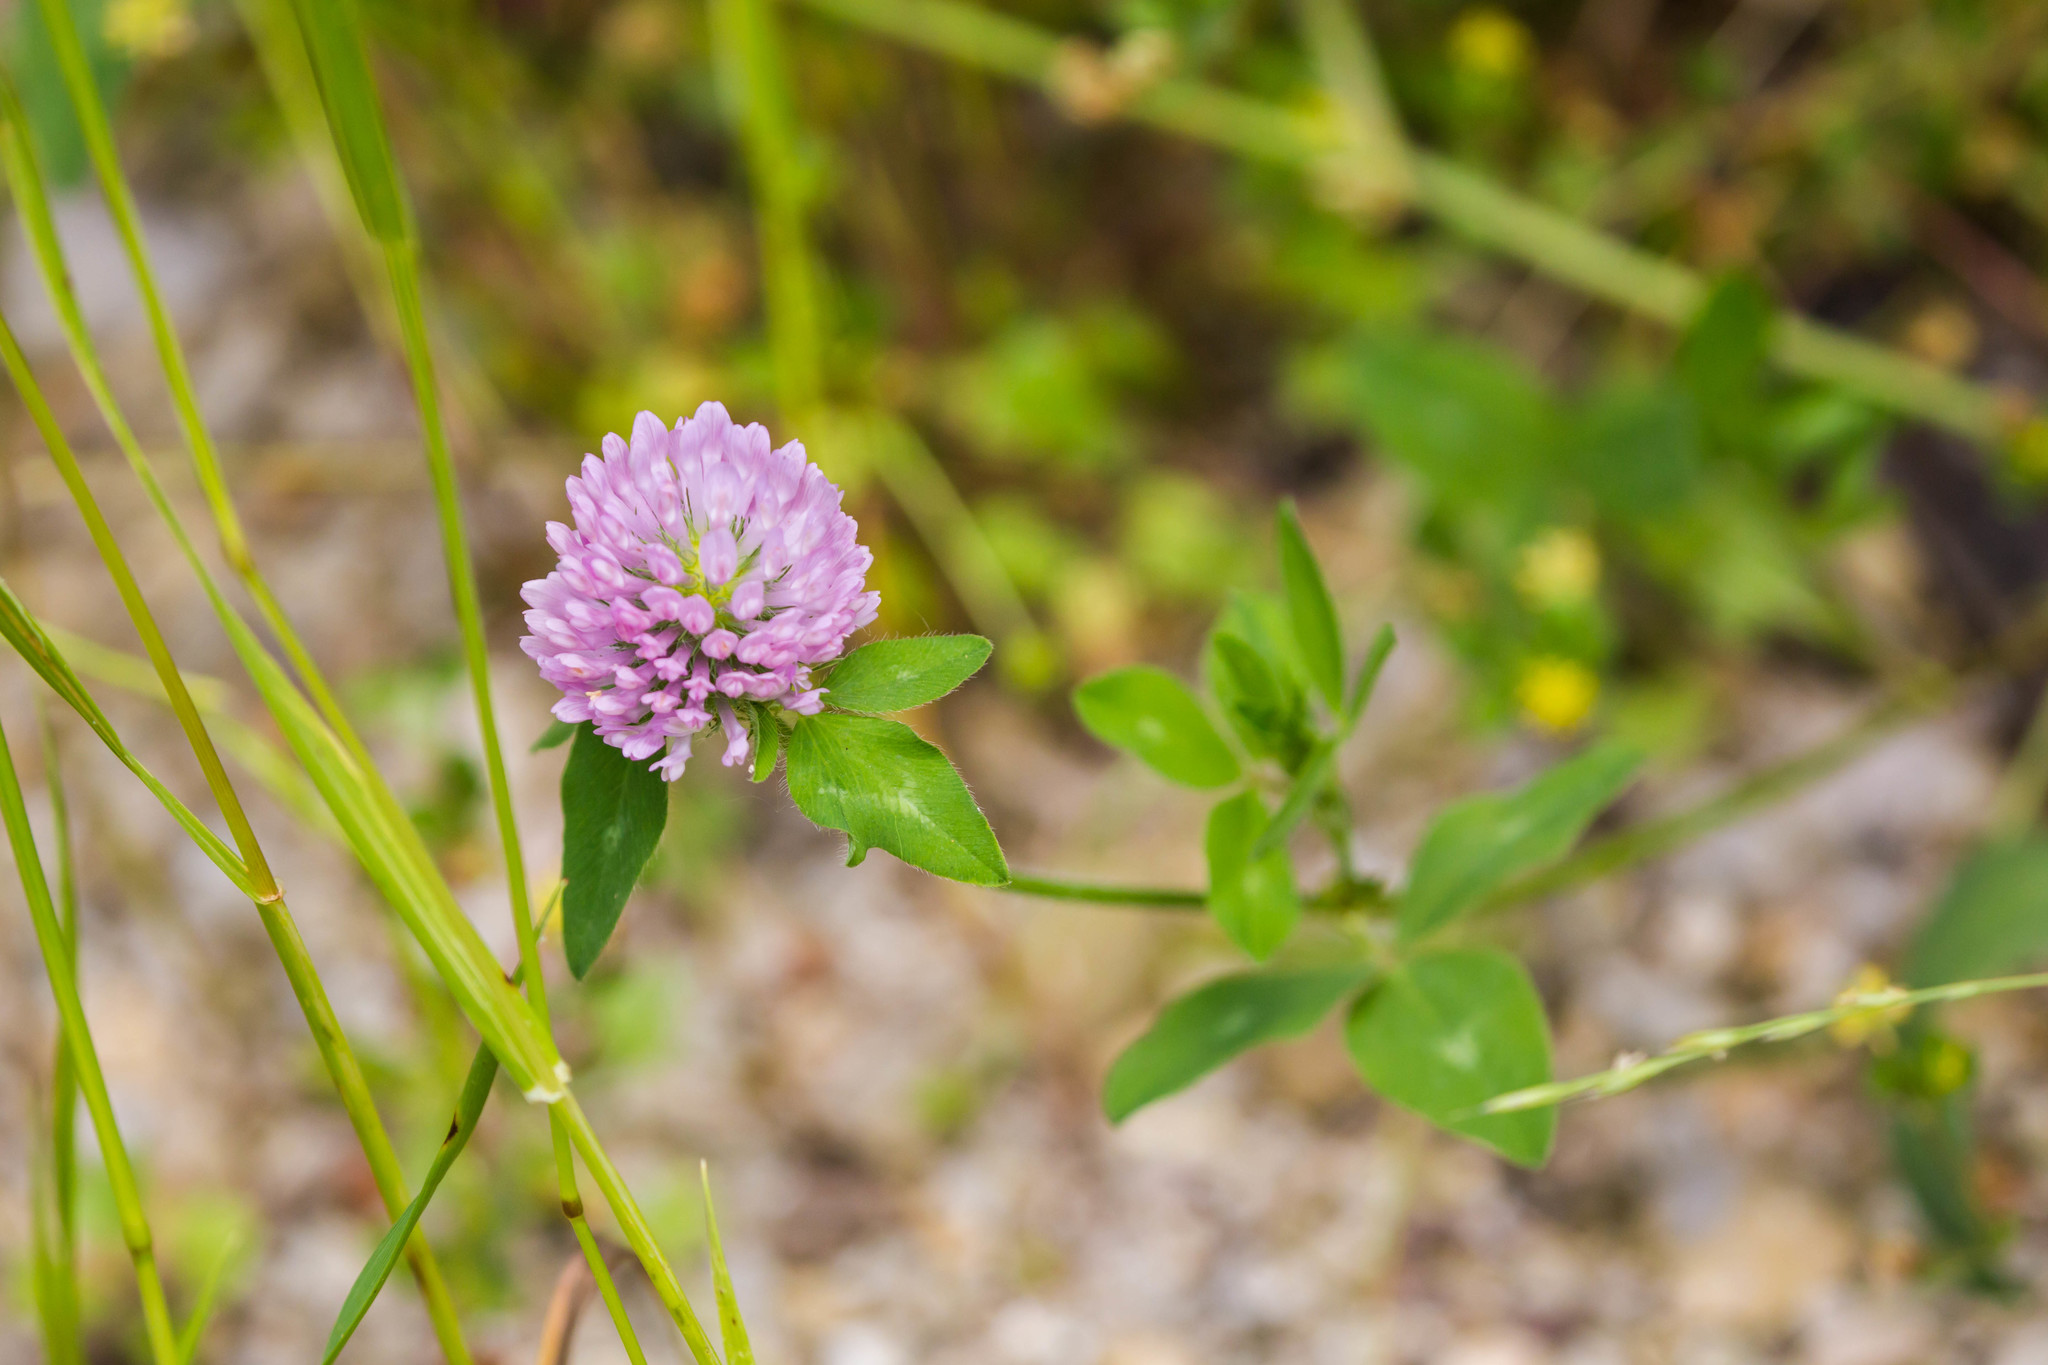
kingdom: Plantae
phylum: Tracheophyta
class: Magnoliopsida
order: Fabales
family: Fabaceae
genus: Trifolium
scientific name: Trifolium pratense
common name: Red clover
